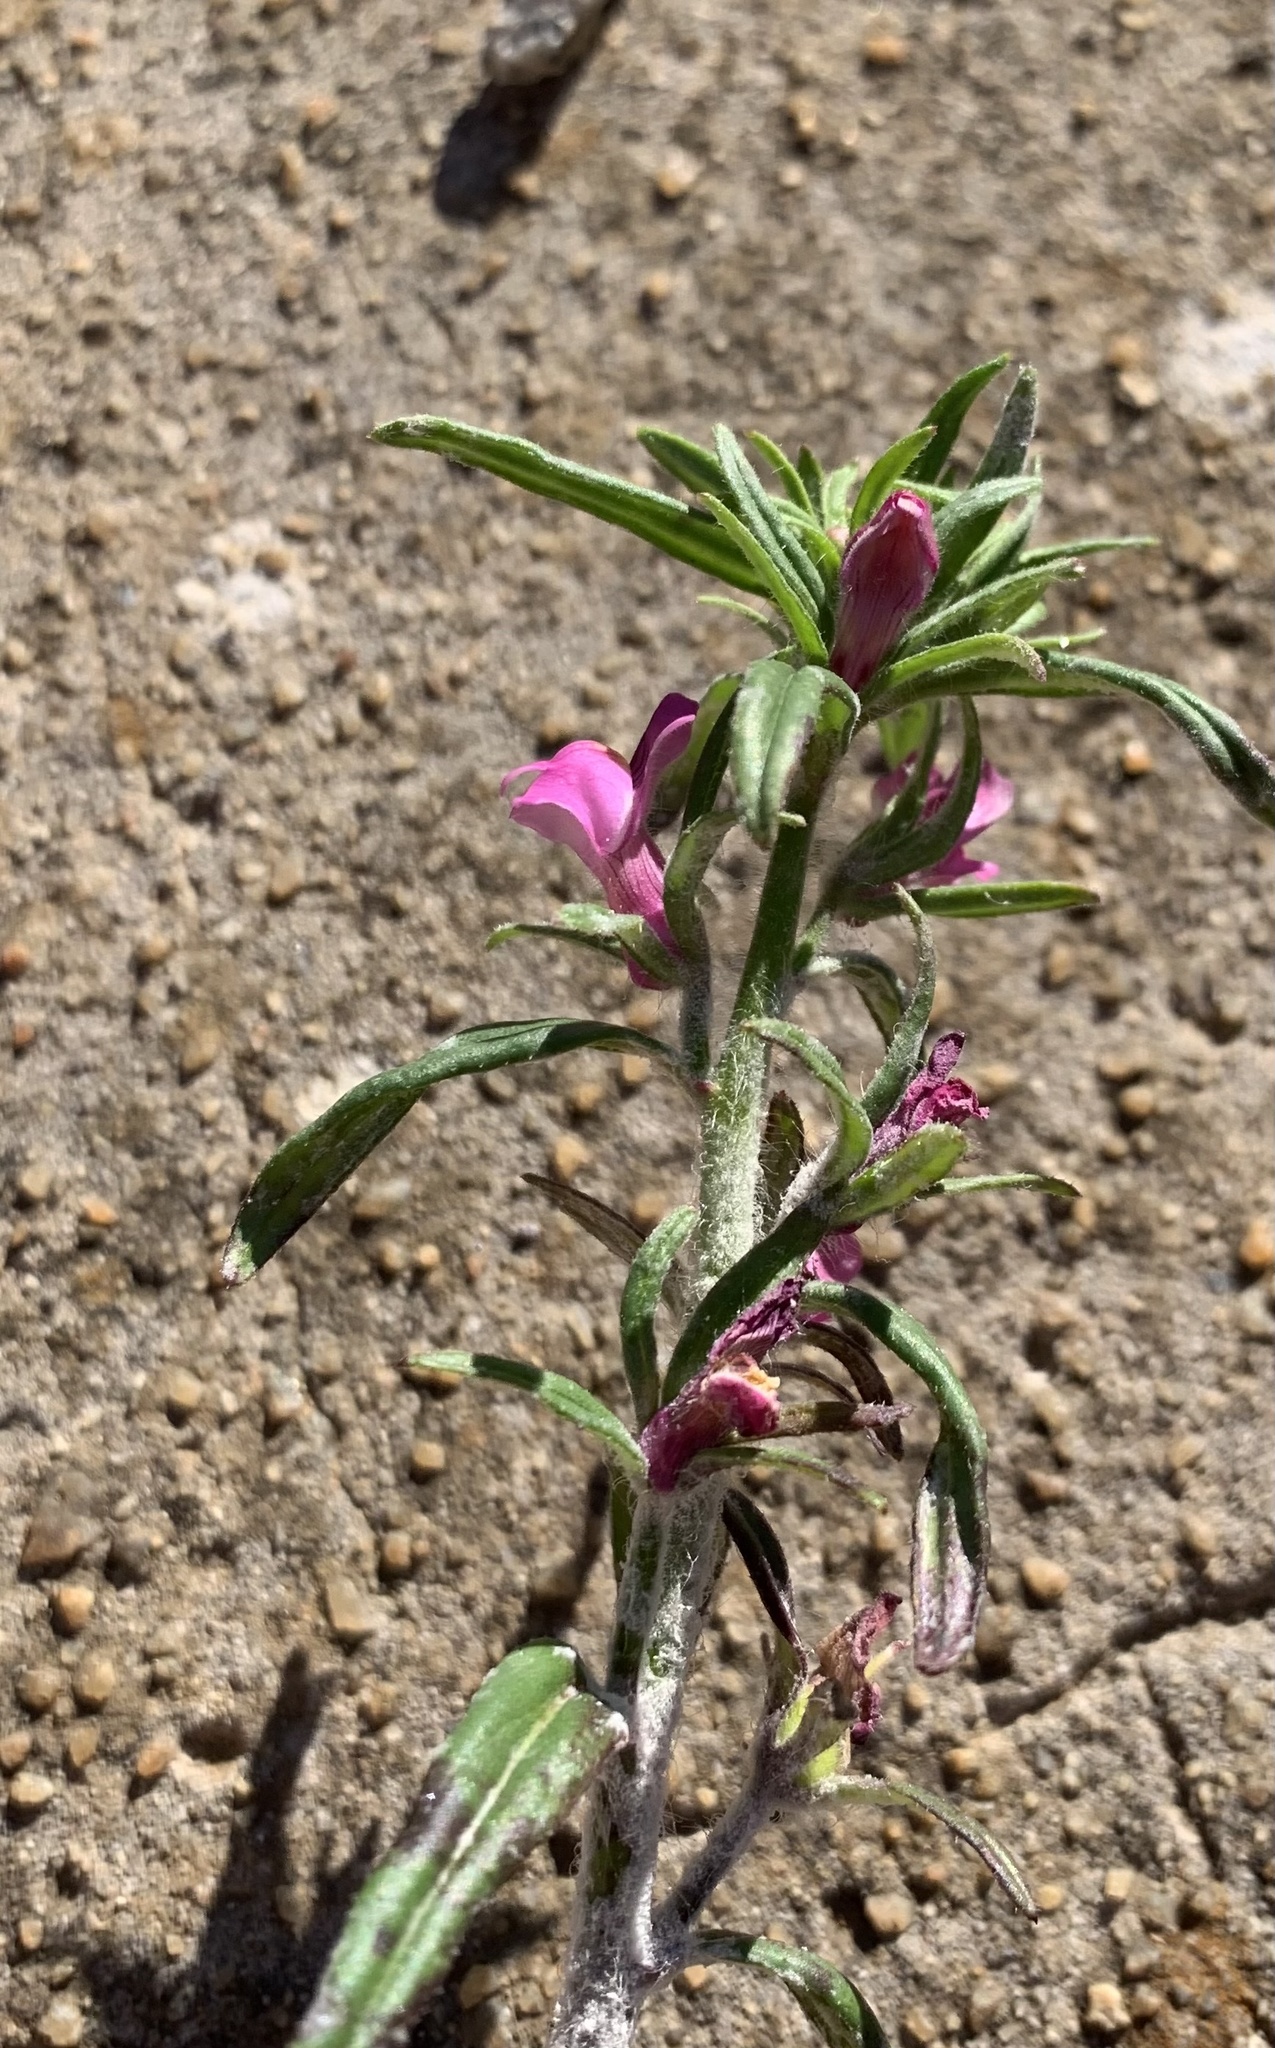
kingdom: Plantae
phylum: Tracheophyta
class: Magnoliopsida
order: Lamiales
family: Plantaginaceae
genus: Misopates
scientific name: Misopates orontium
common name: Weasel's-snout
